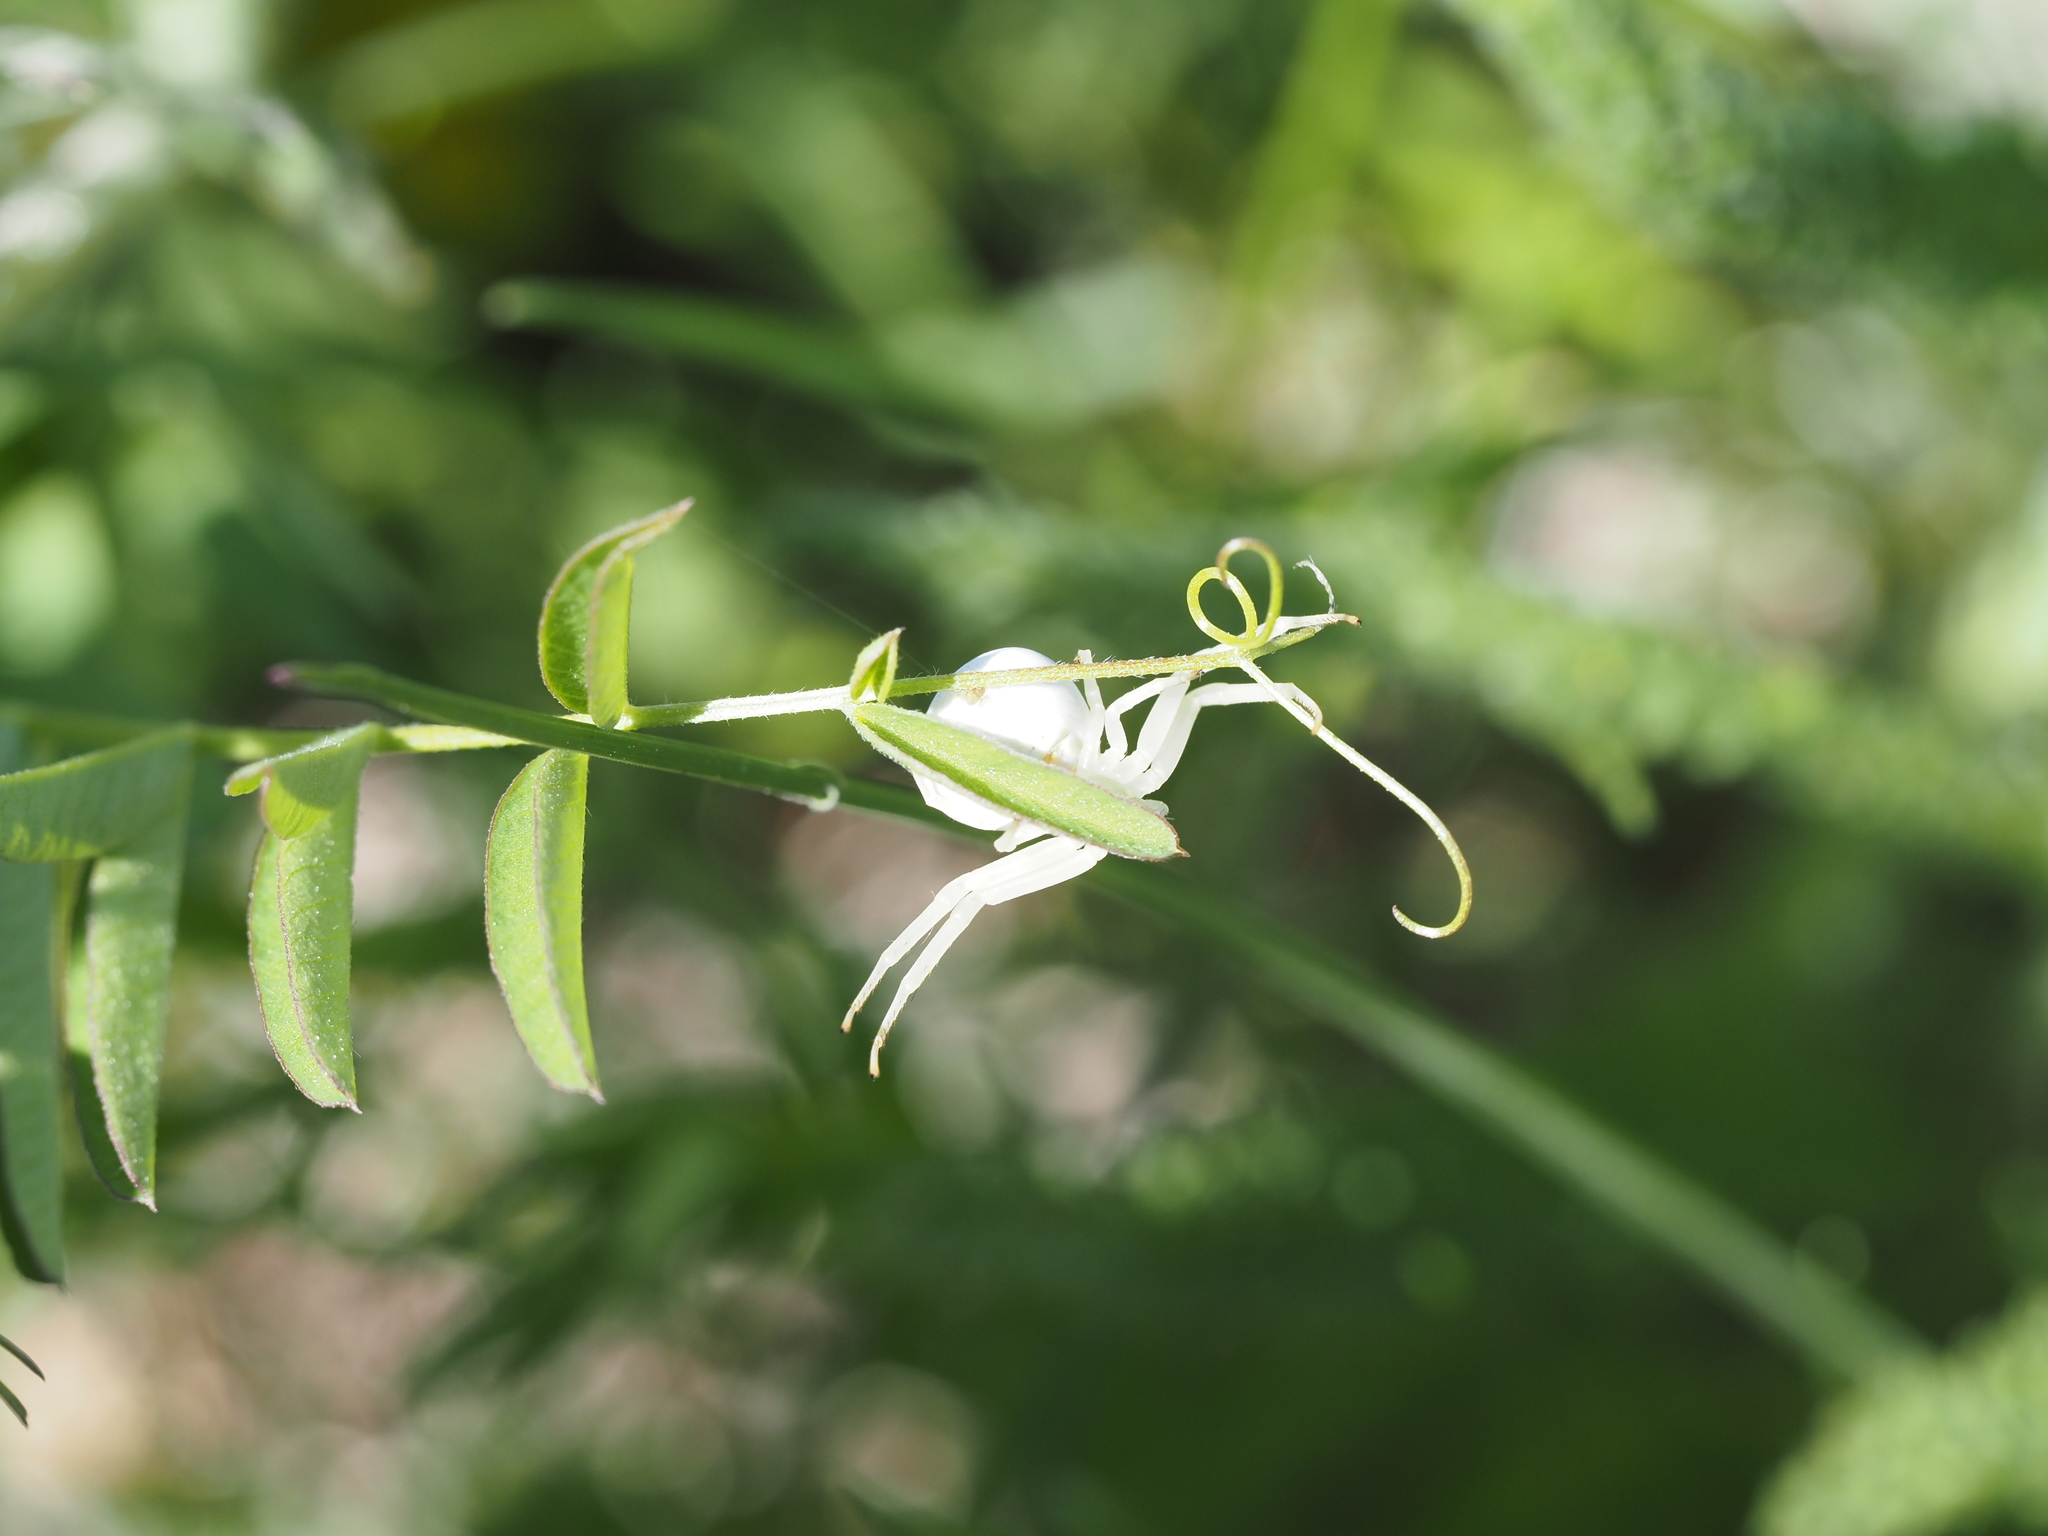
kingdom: Animalia
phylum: Arthropoda
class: Arachnida
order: Araneae
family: Thomisidae
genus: Misumena
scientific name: Misumena vatia
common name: Goldenrod crab spider
